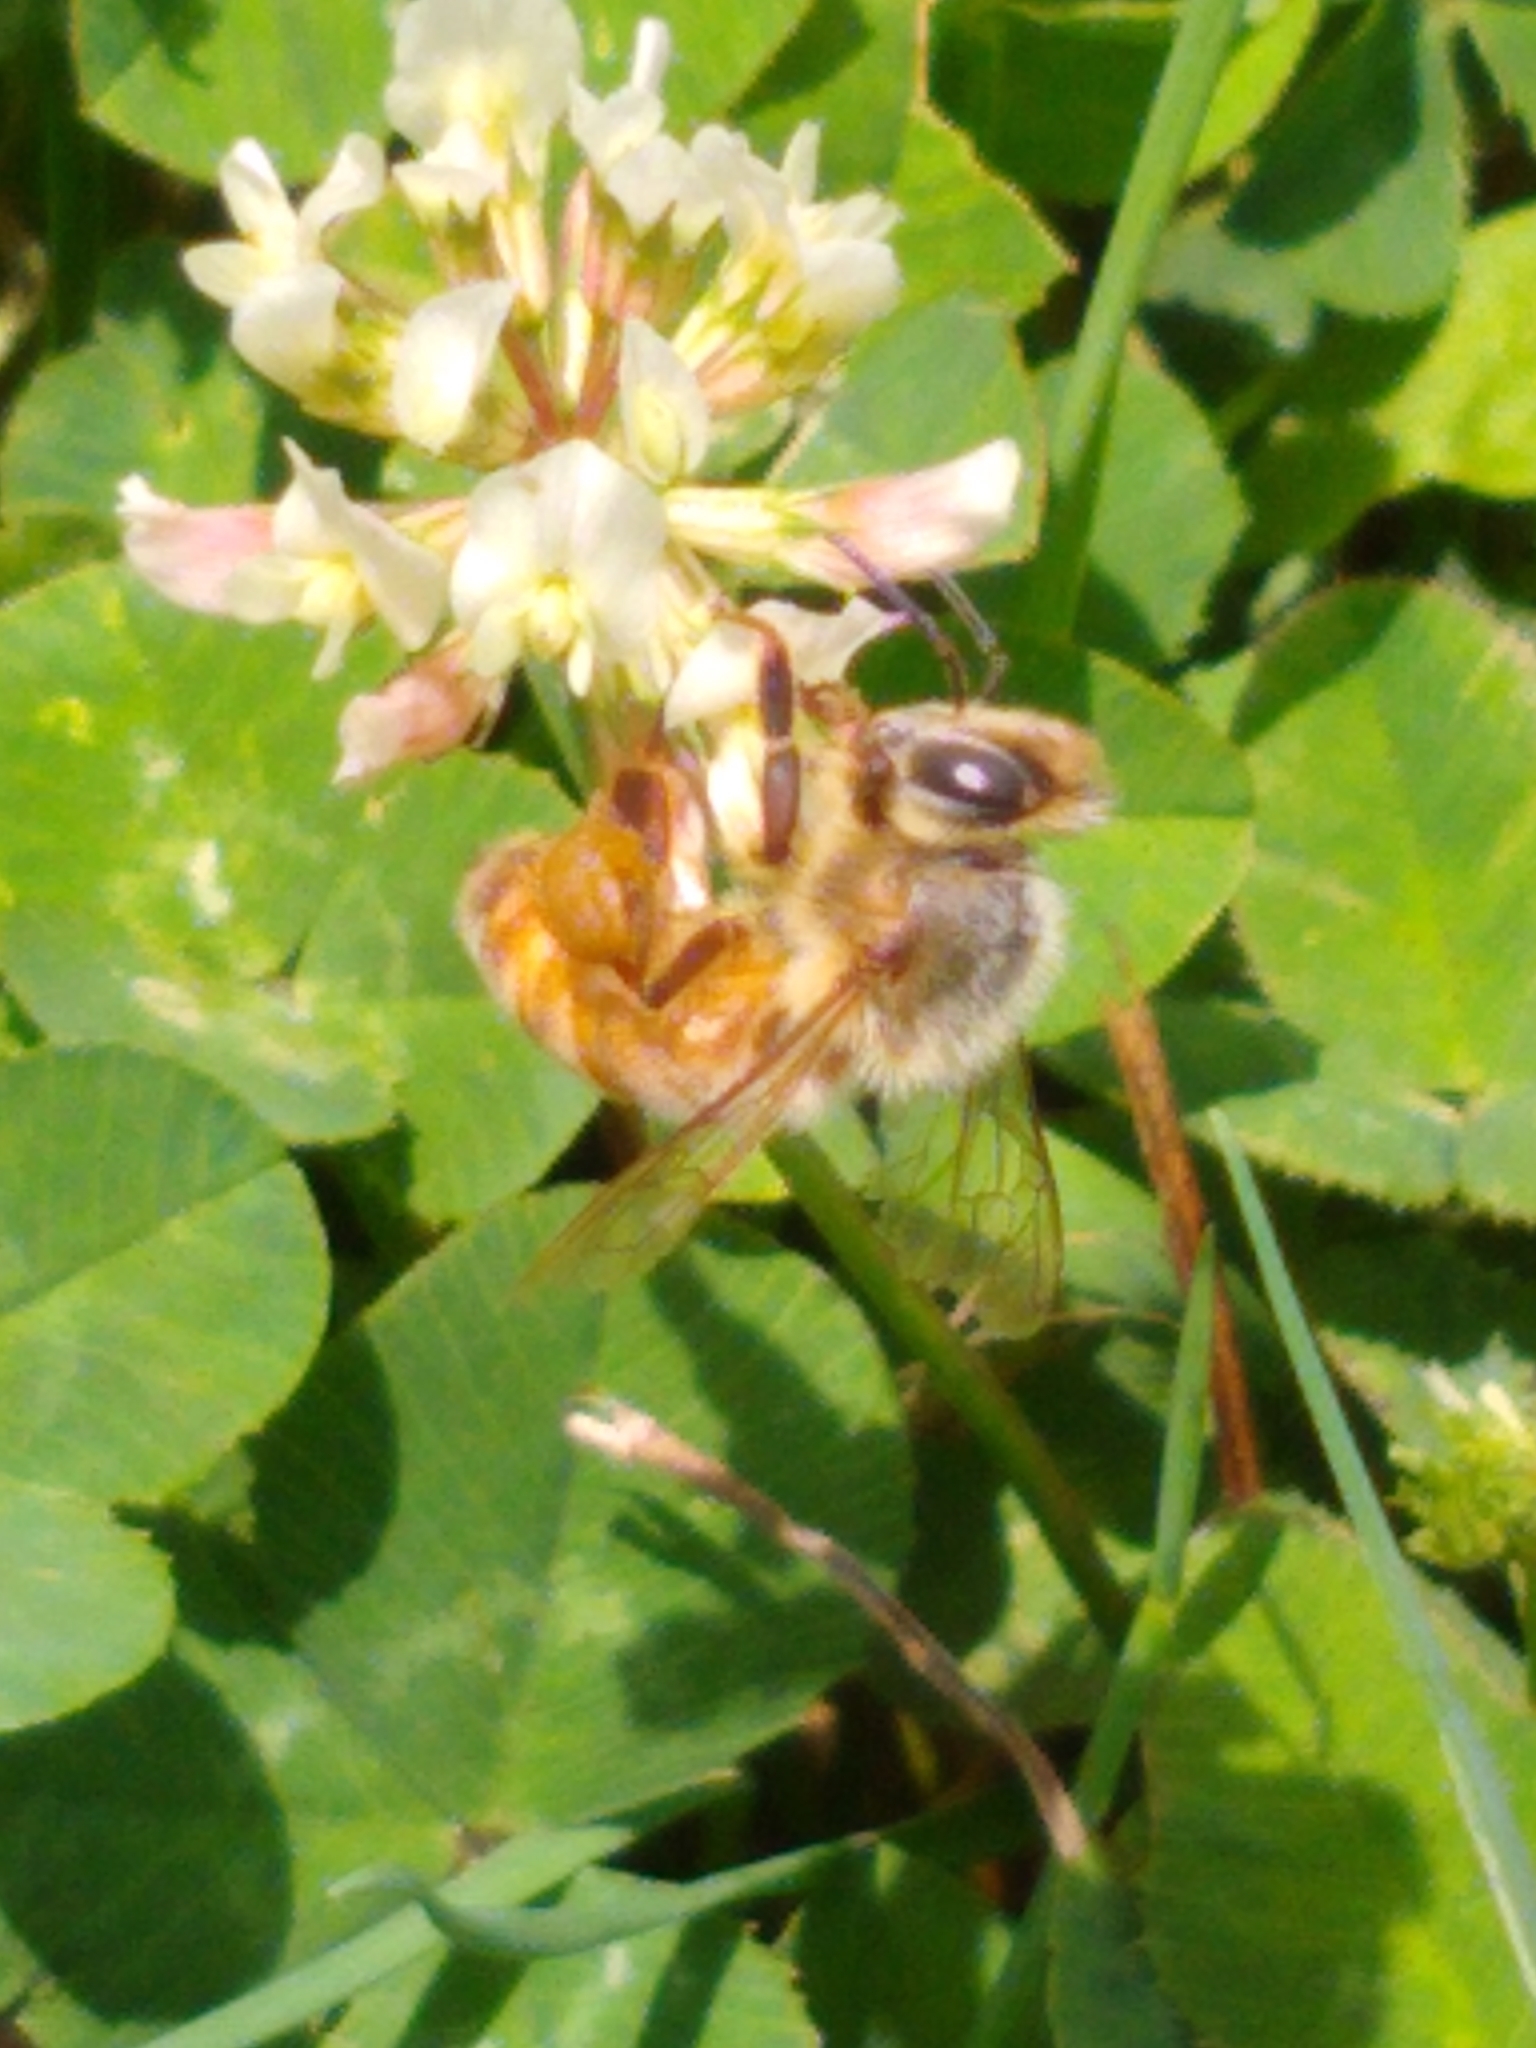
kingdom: Animalia
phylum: Arthropoda
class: Insecta
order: Hymenoptera
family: Apidae
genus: Apis
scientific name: Apis mellifera
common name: Honey bee
